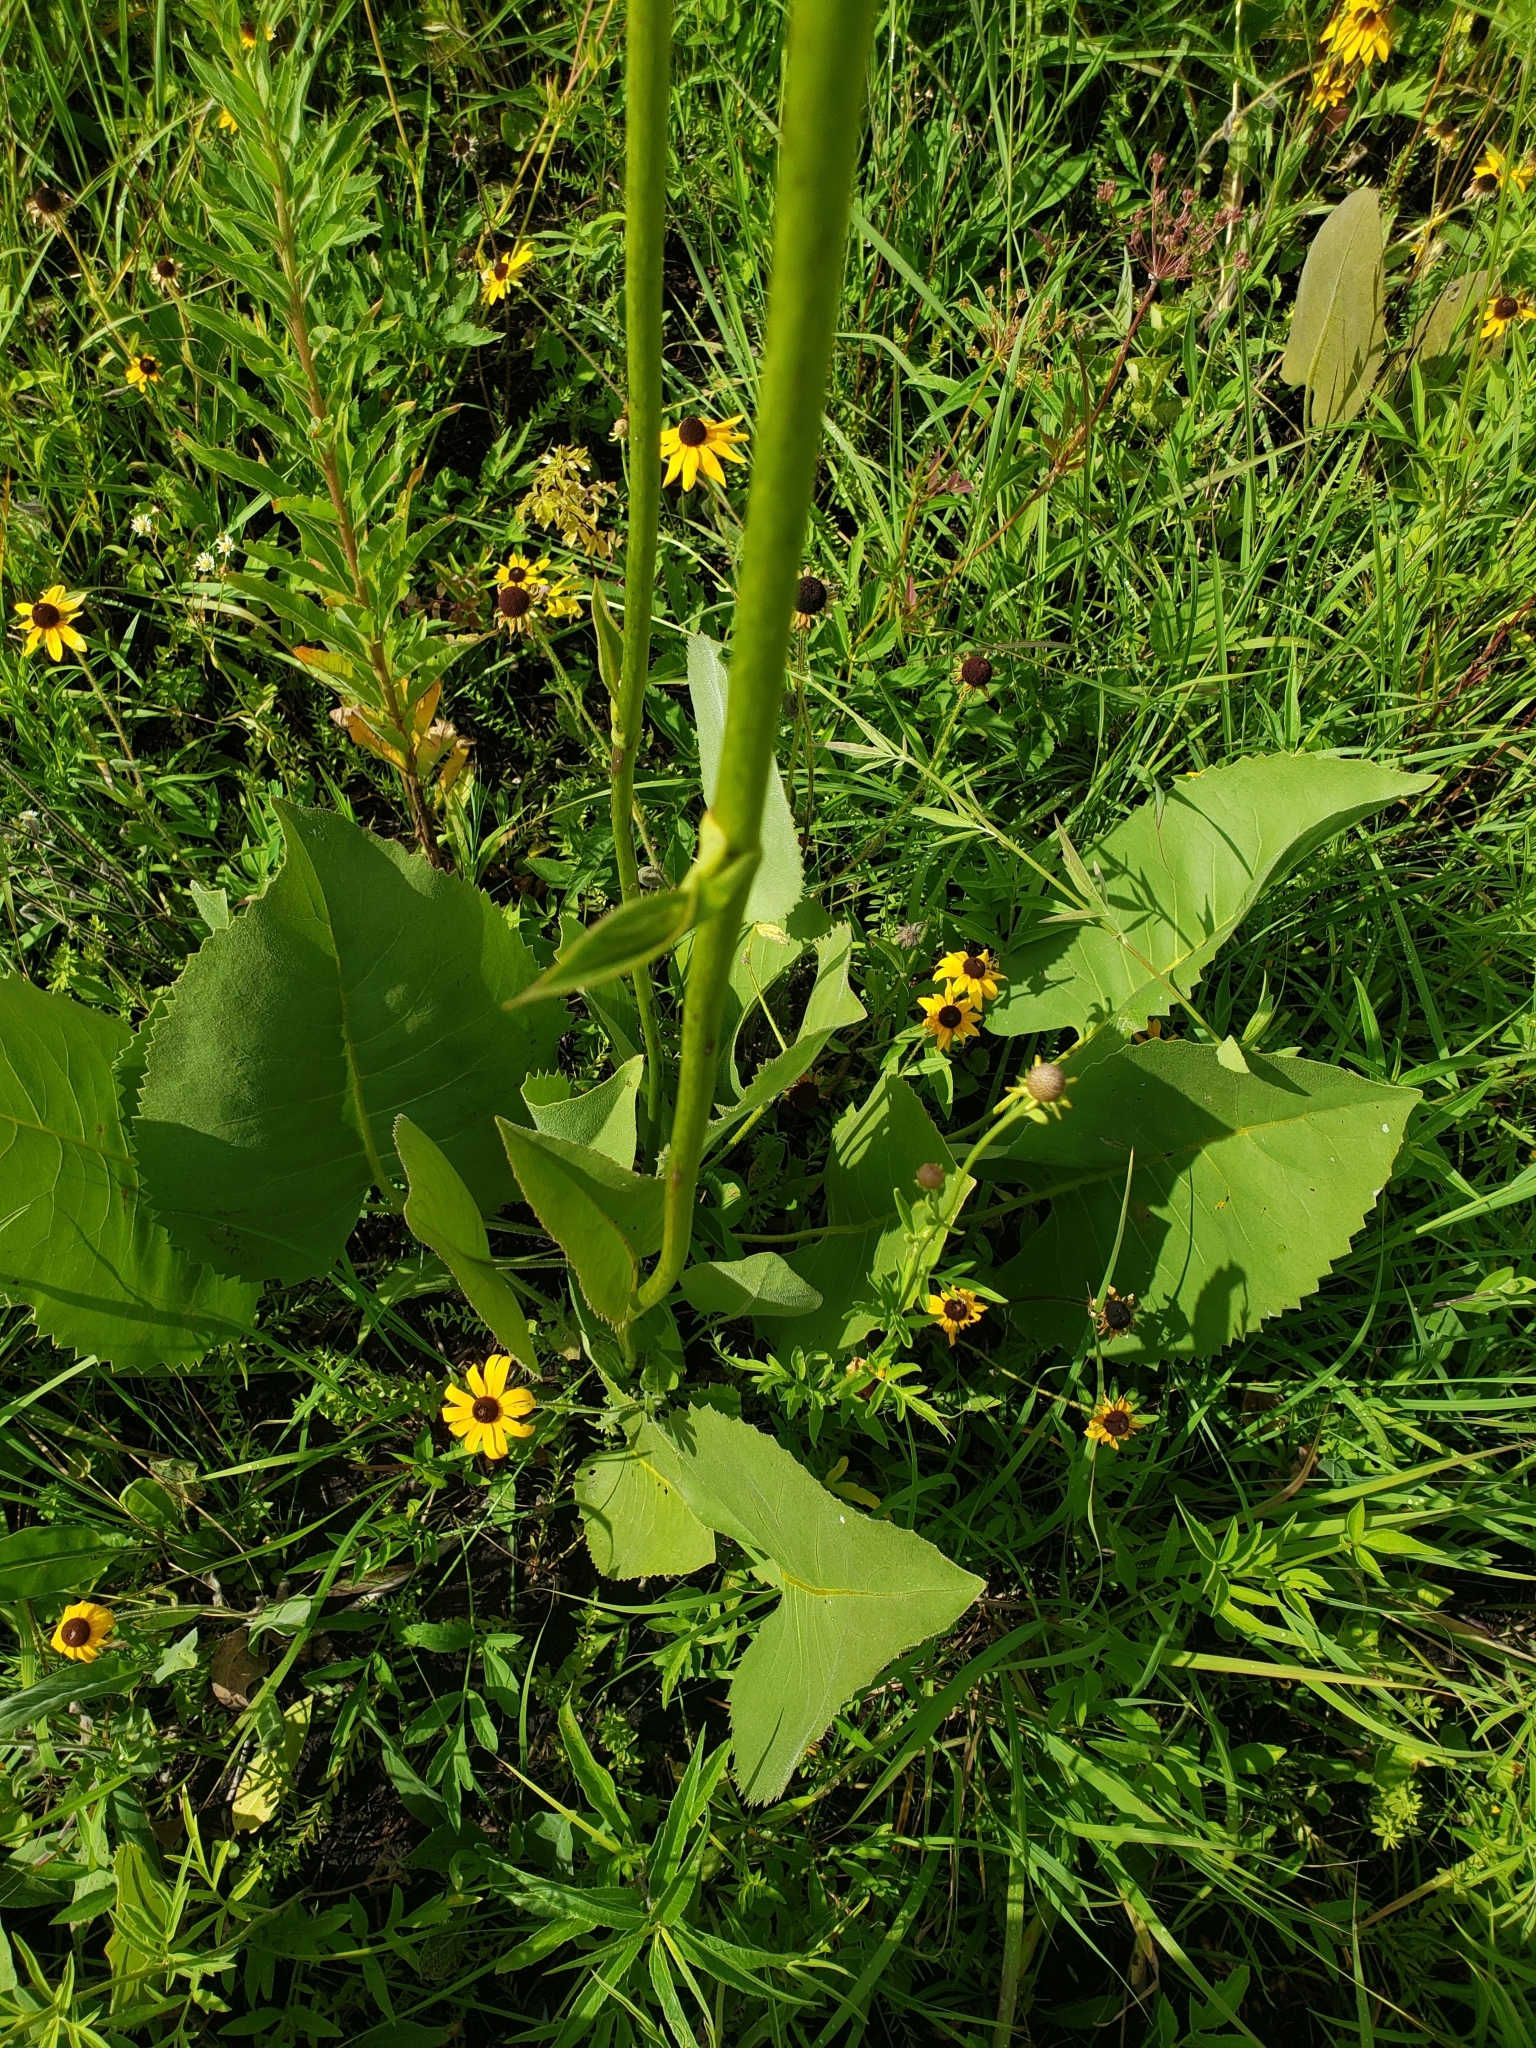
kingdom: Plantae
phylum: Tracheophyta
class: Magnoliopsida
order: Asterales
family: Asteraceae
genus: Silphium
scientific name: Silphium terebinthinaceum
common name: Basal-leaf rosinweed
